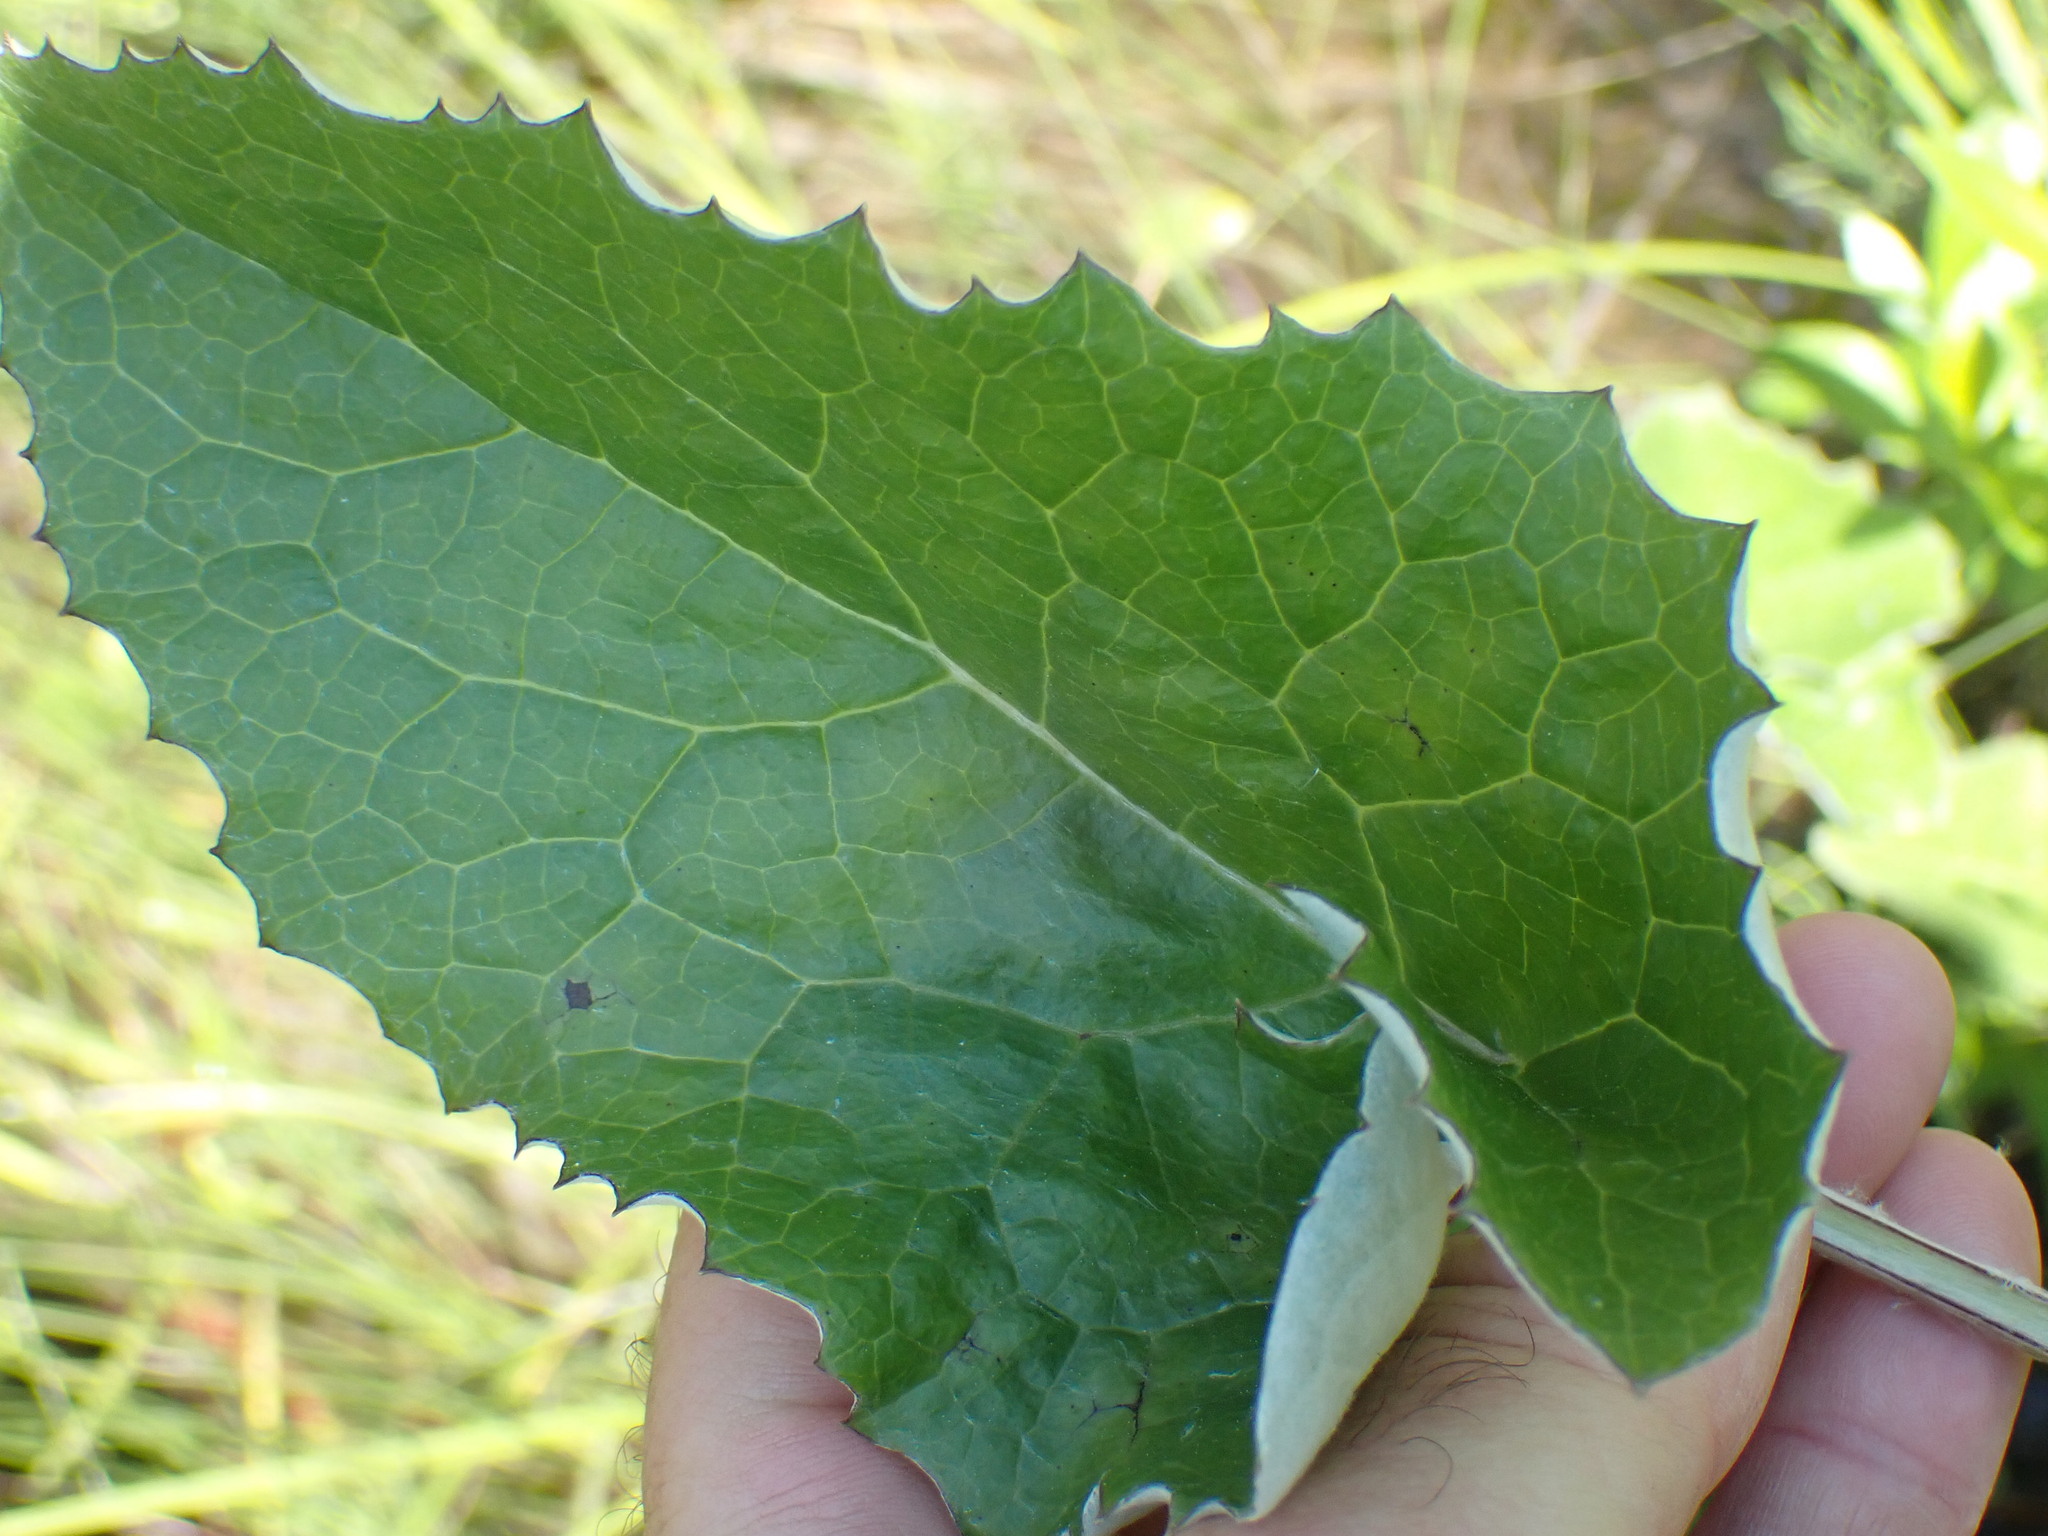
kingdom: Plantae
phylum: Tracheophyta
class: Magnoliopsida
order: Asterales
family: Asteraceae
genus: Petasites
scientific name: Petasites frigidus
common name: Arctic butterbur
